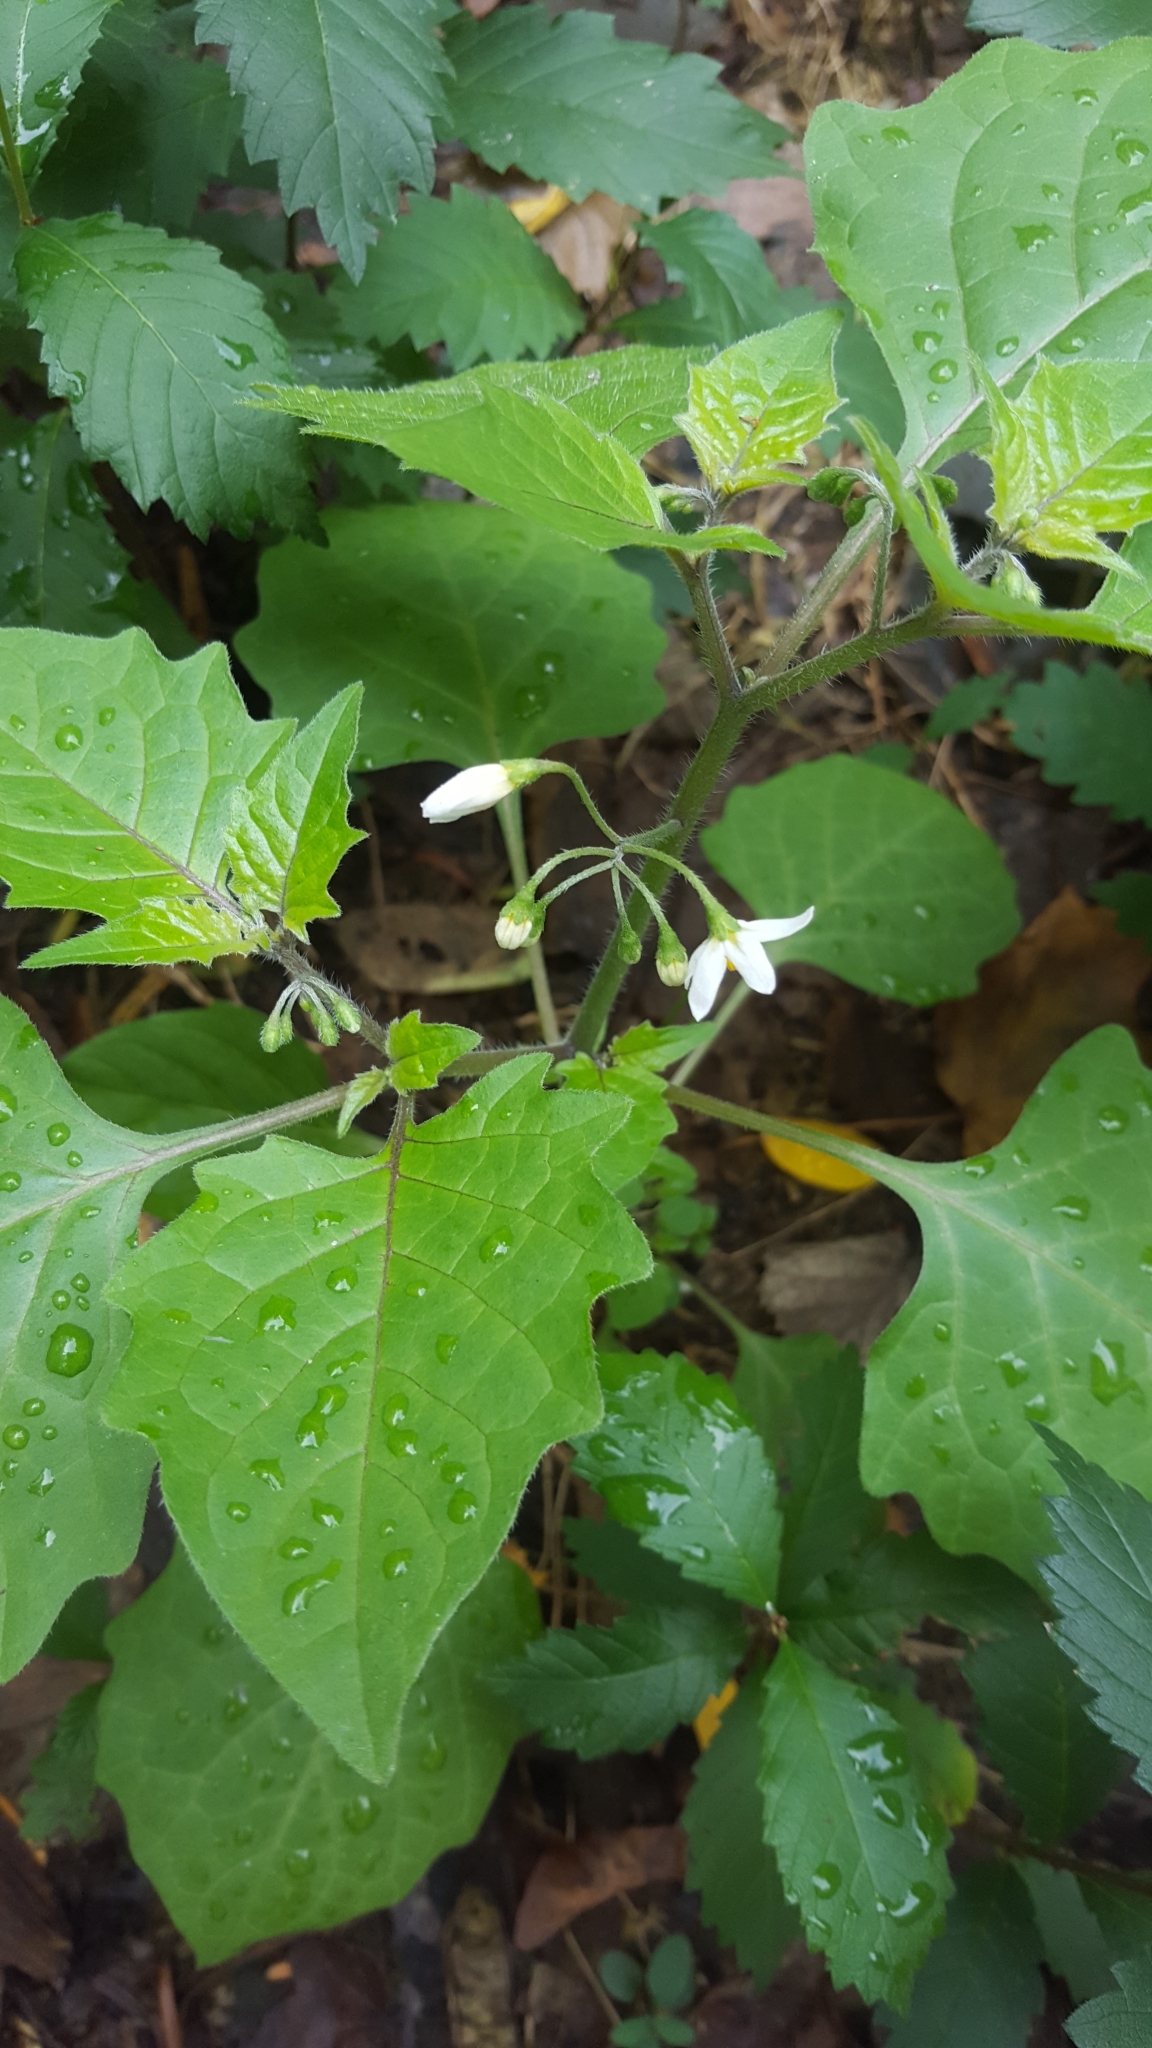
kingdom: Plantae
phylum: Tracheophyta
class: Magnoliopsida
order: Solanales
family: Solanaceae
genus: Solanum
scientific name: Solanum nigrum
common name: Black nightshade
